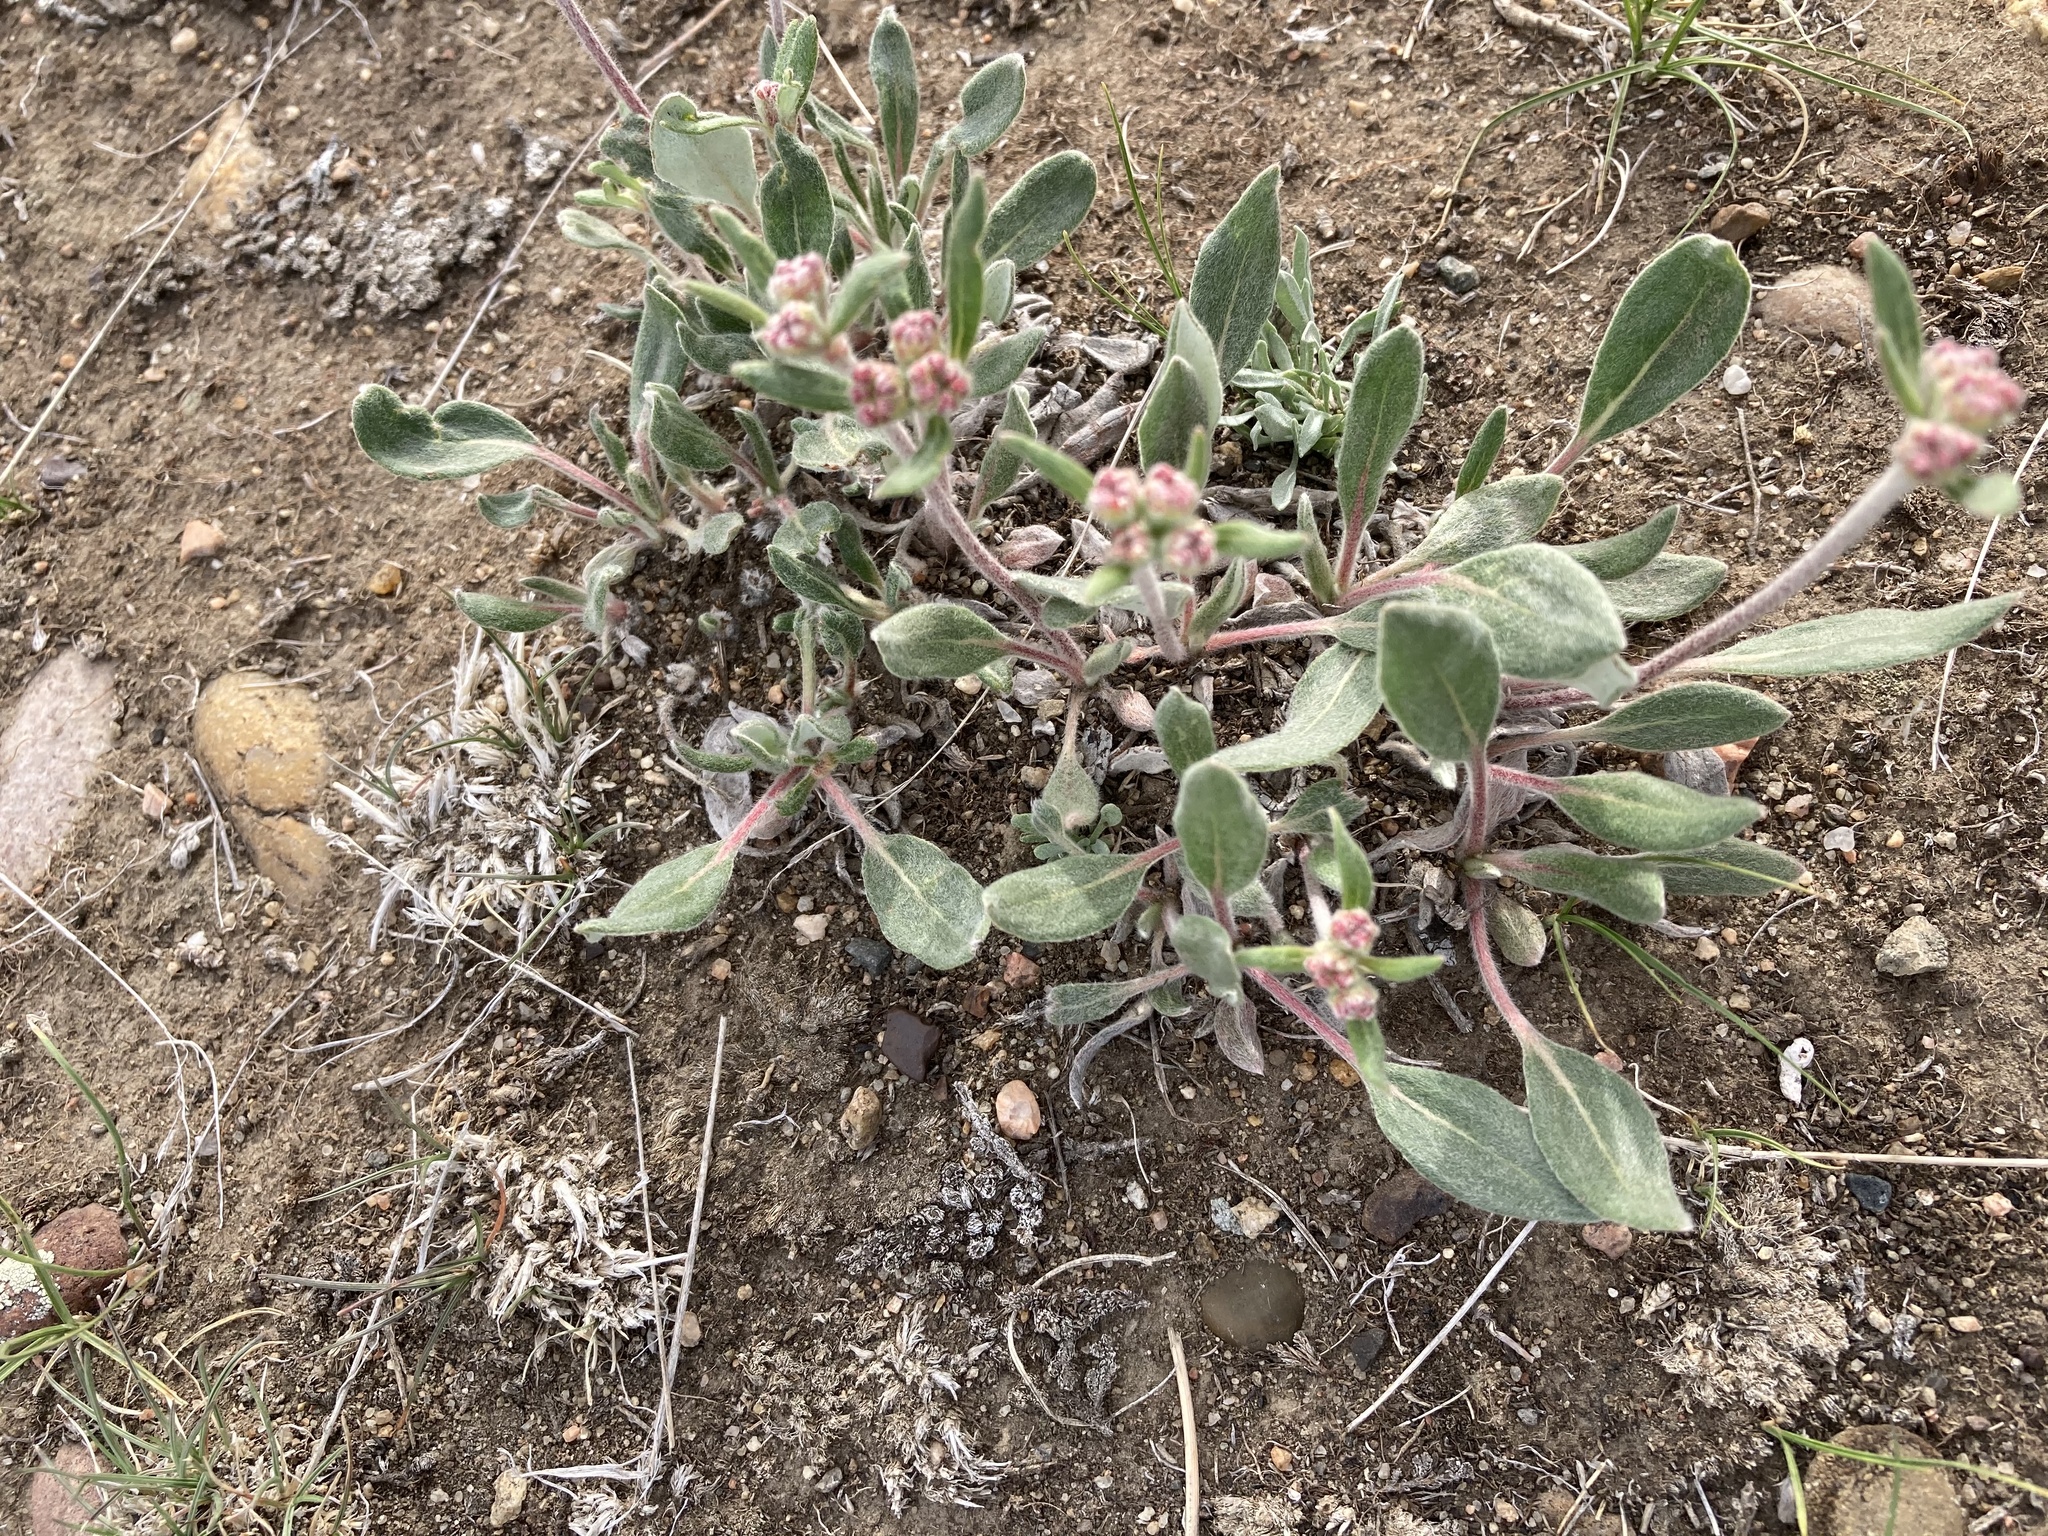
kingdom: Plantae
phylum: Tracheophyta
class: Magnoliopsida
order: Caryophyllales
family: Polygonaceae
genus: Eriogonum
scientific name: Eriogonum flavum
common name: Alpine golden wild buckwheat
